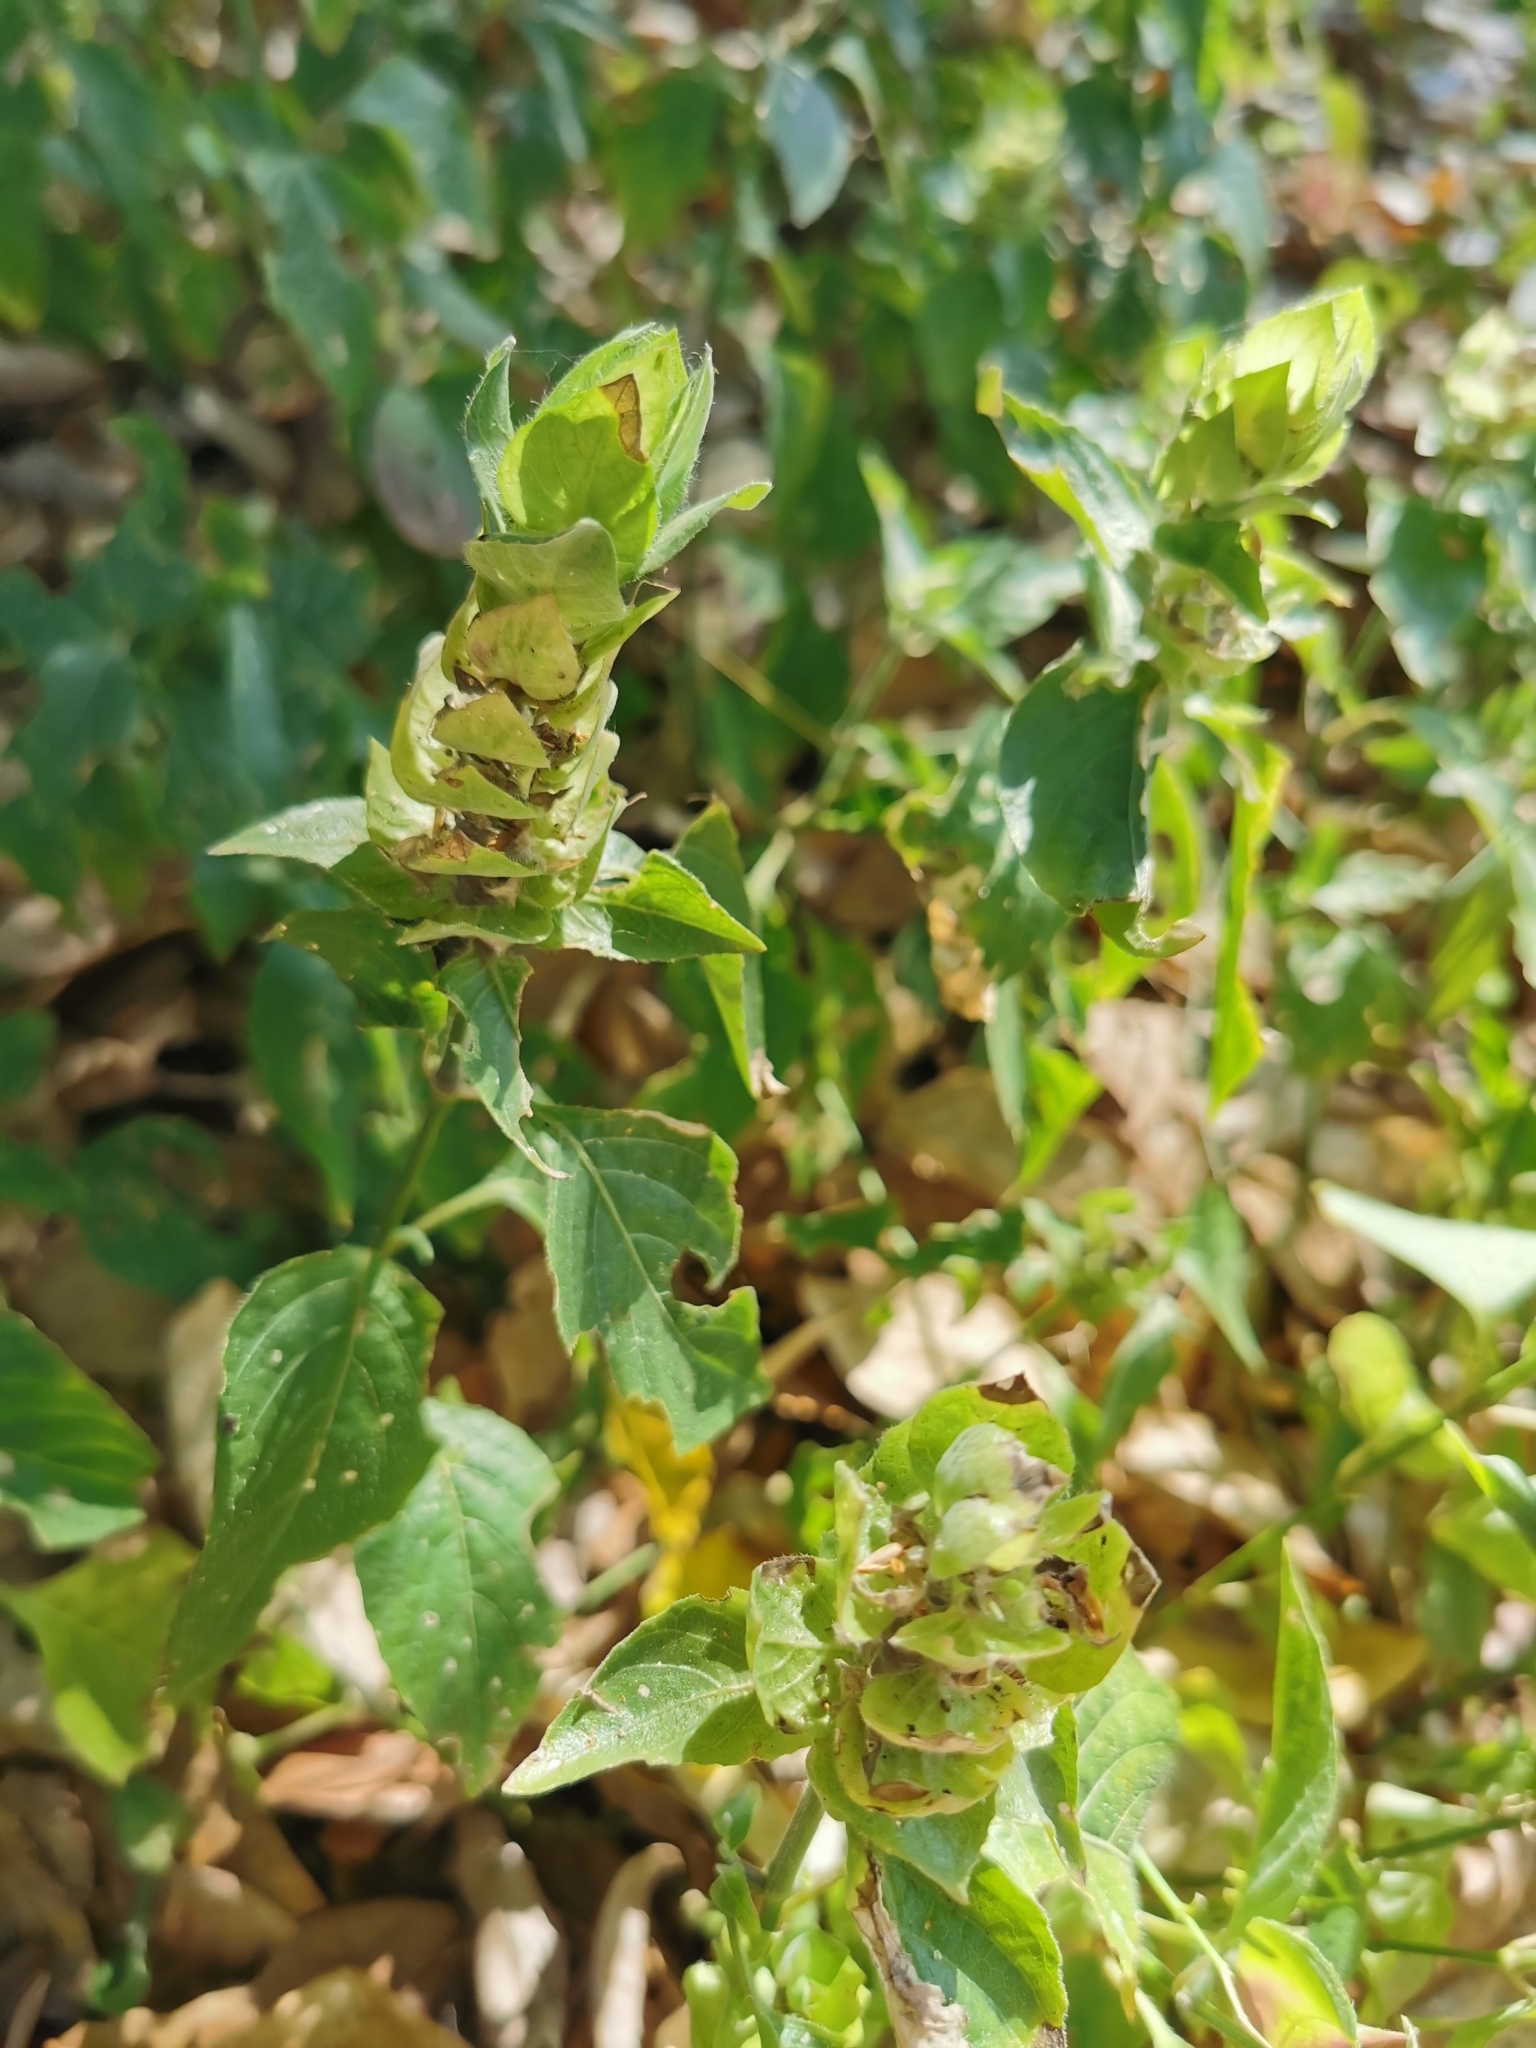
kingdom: Plantae
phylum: Tracheophyta
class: Magnoliopsida
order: Lamiales
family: Acanthaceae
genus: Ruellia
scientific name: Ruellia blechum
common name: Browne's blechum
